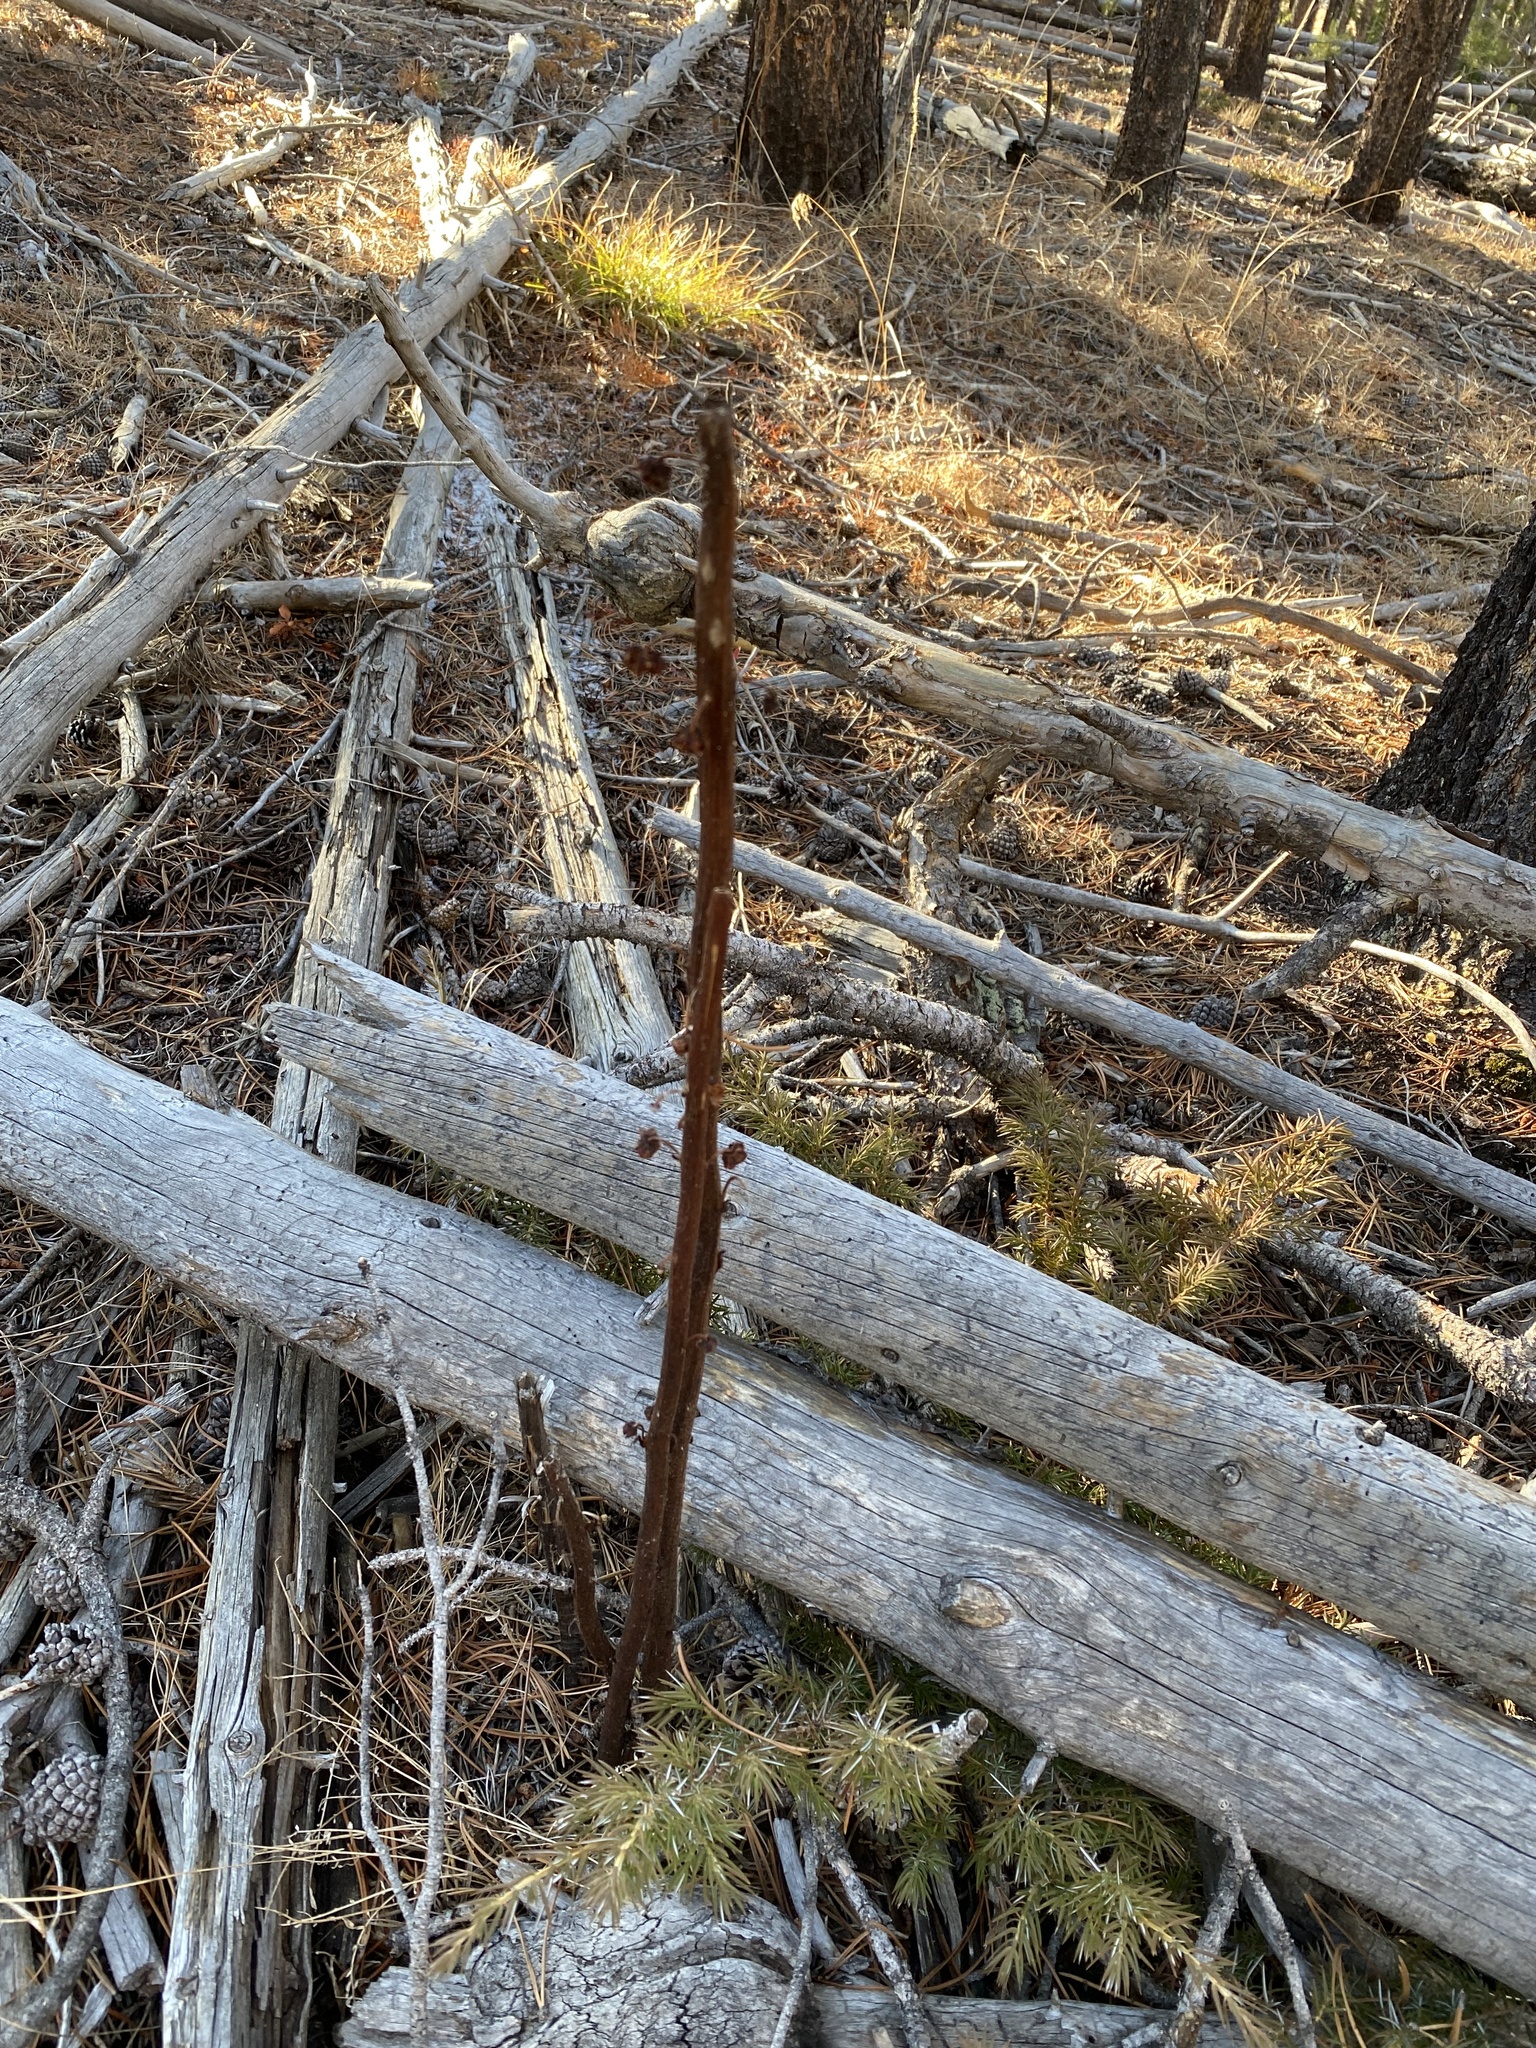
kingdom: Plantae
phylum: Tracheophyta
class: Magnoliopsida
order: Ericales
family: Ericaceae
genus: Pterospora
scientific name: Pterospora andromedea
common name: Giant bird's-nest
